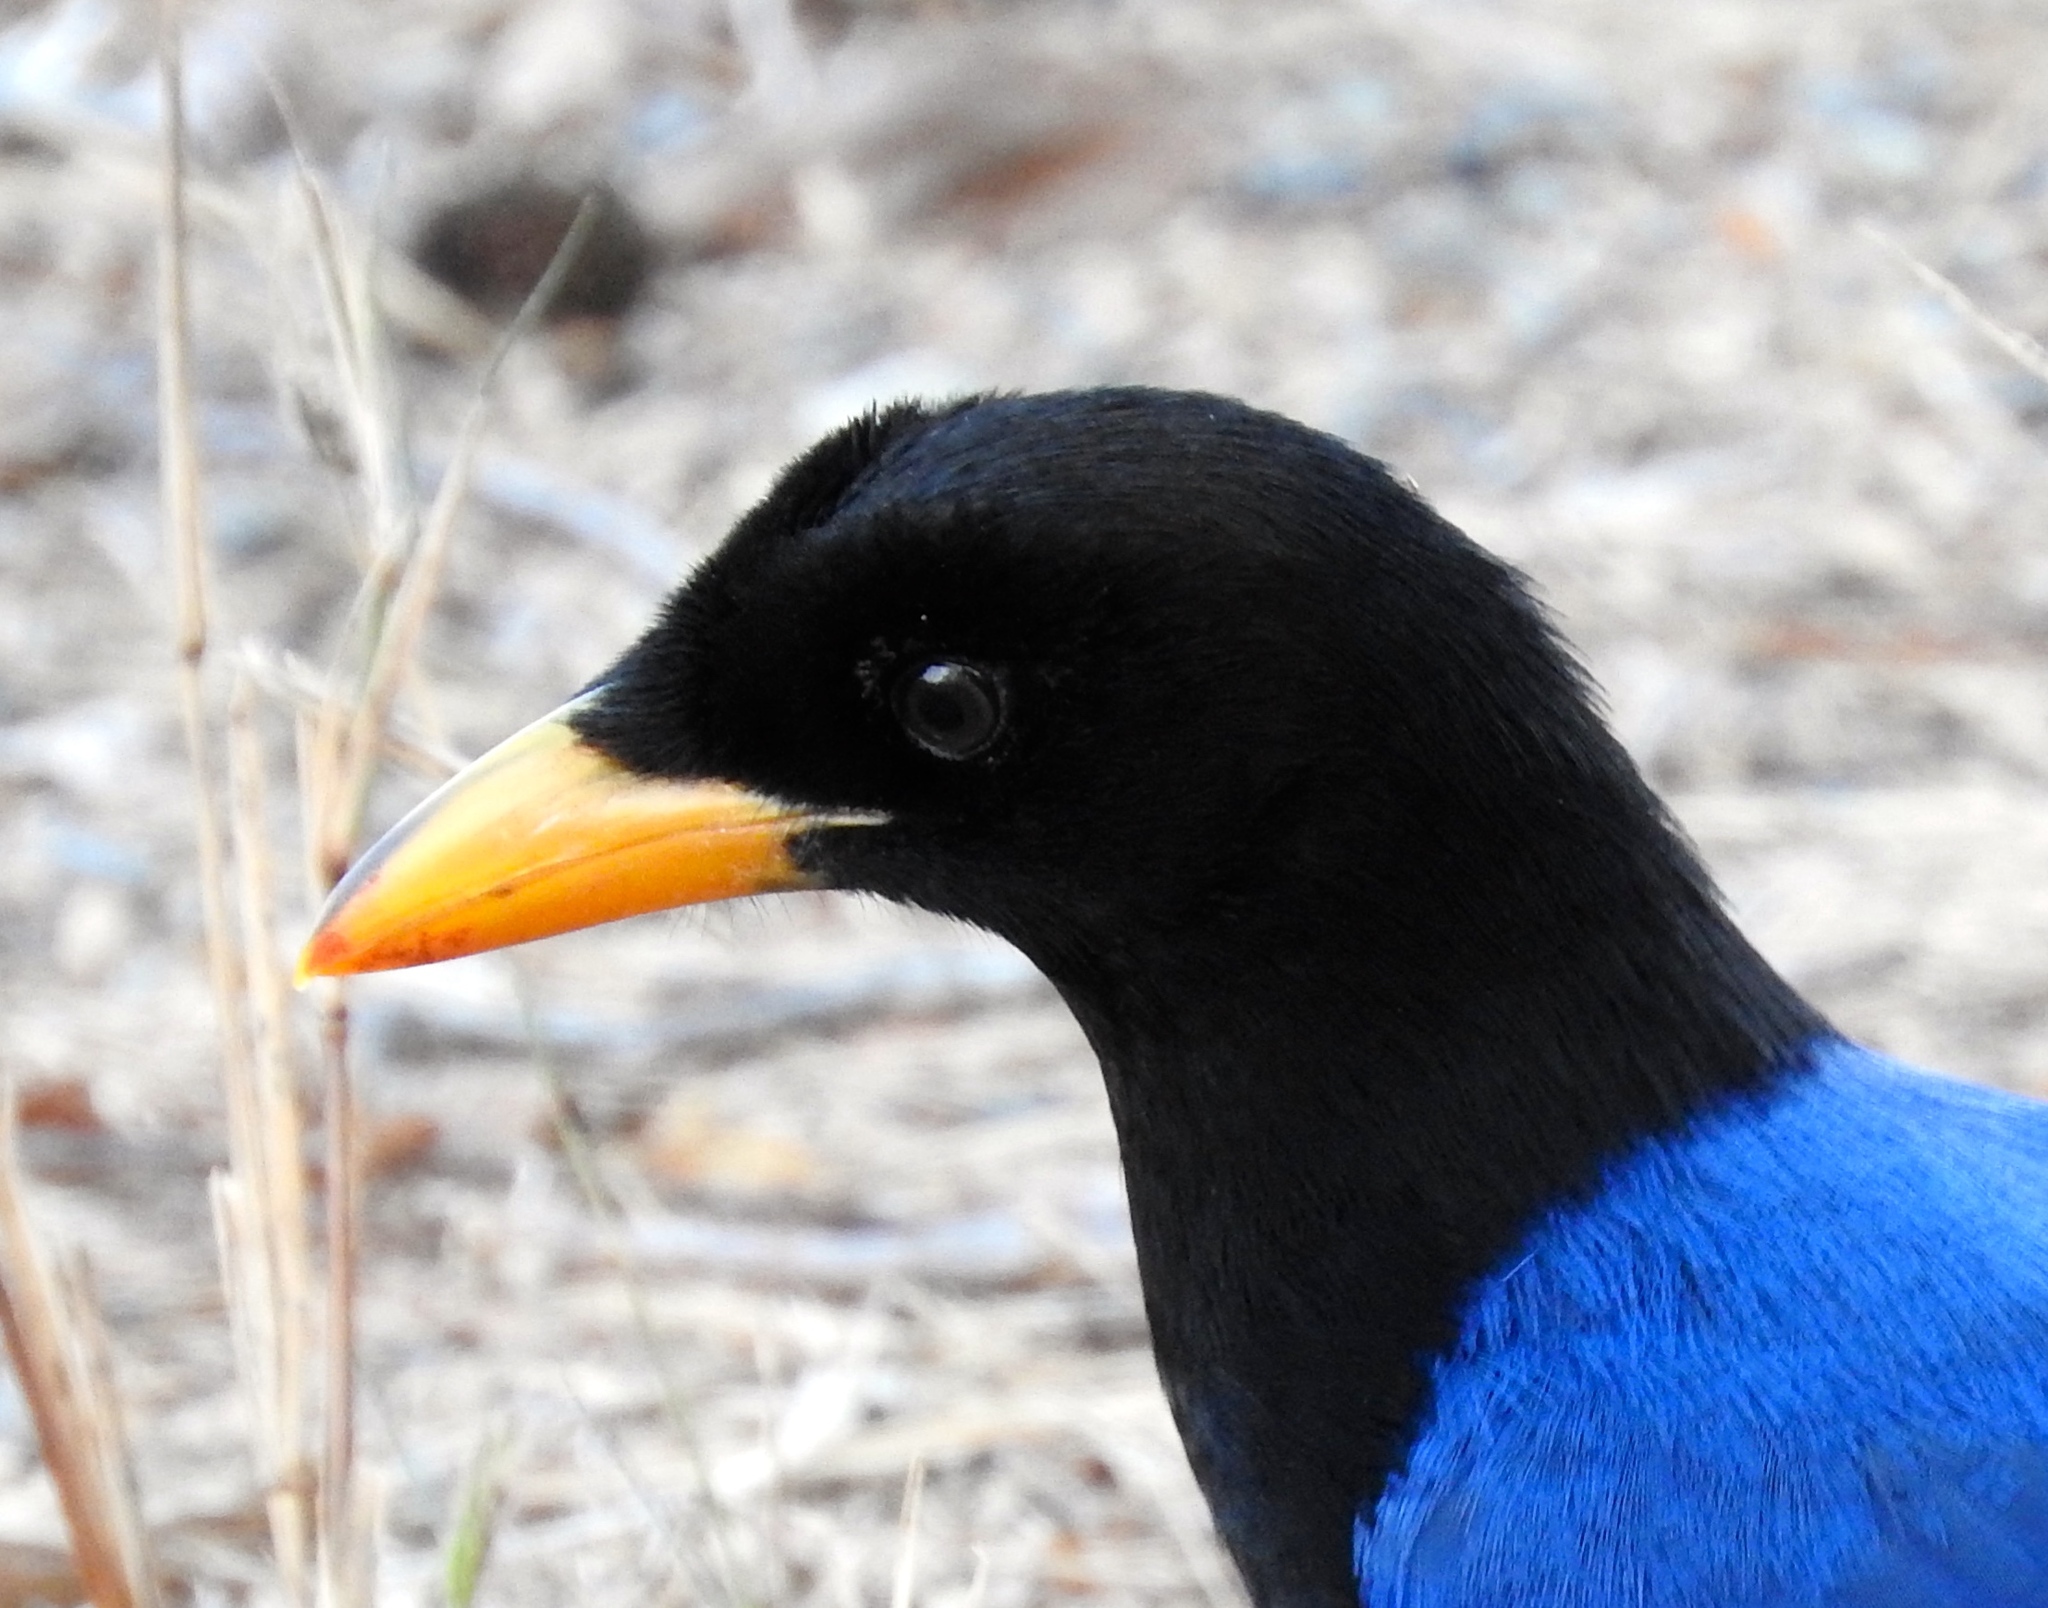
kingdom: Animalia
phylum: Chordata
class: Aves
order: Passeriformes
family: Corvidae
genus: Cyanocorax
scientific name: Cyanocorax beecheii
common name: Purplish-backed jay
